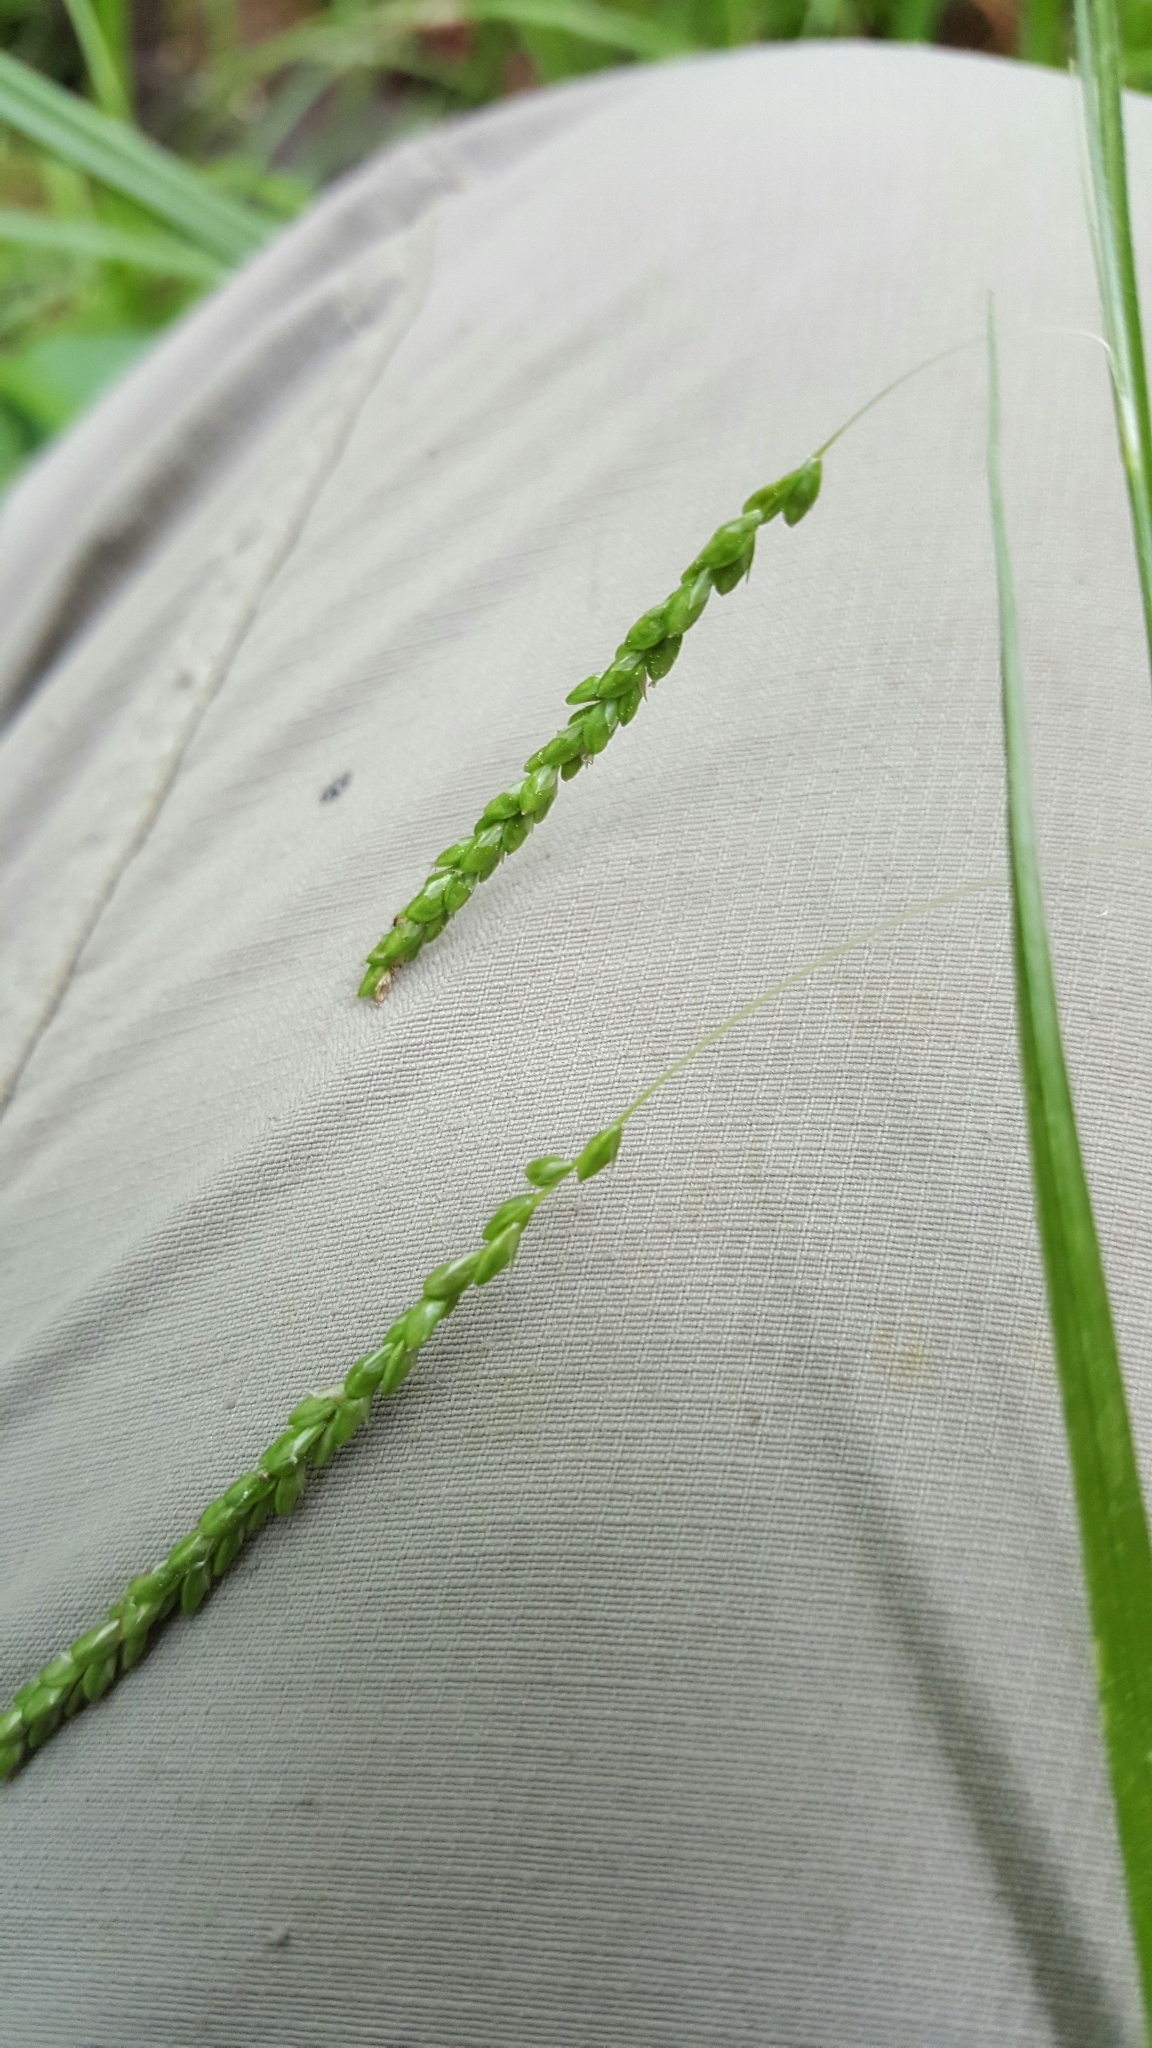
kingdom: Plantae
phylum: Tracheophyta
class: Liliopsida
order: Poales
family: Cyperaceae
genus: Carex
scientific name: Carex gracillima
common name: Graceful sedge
